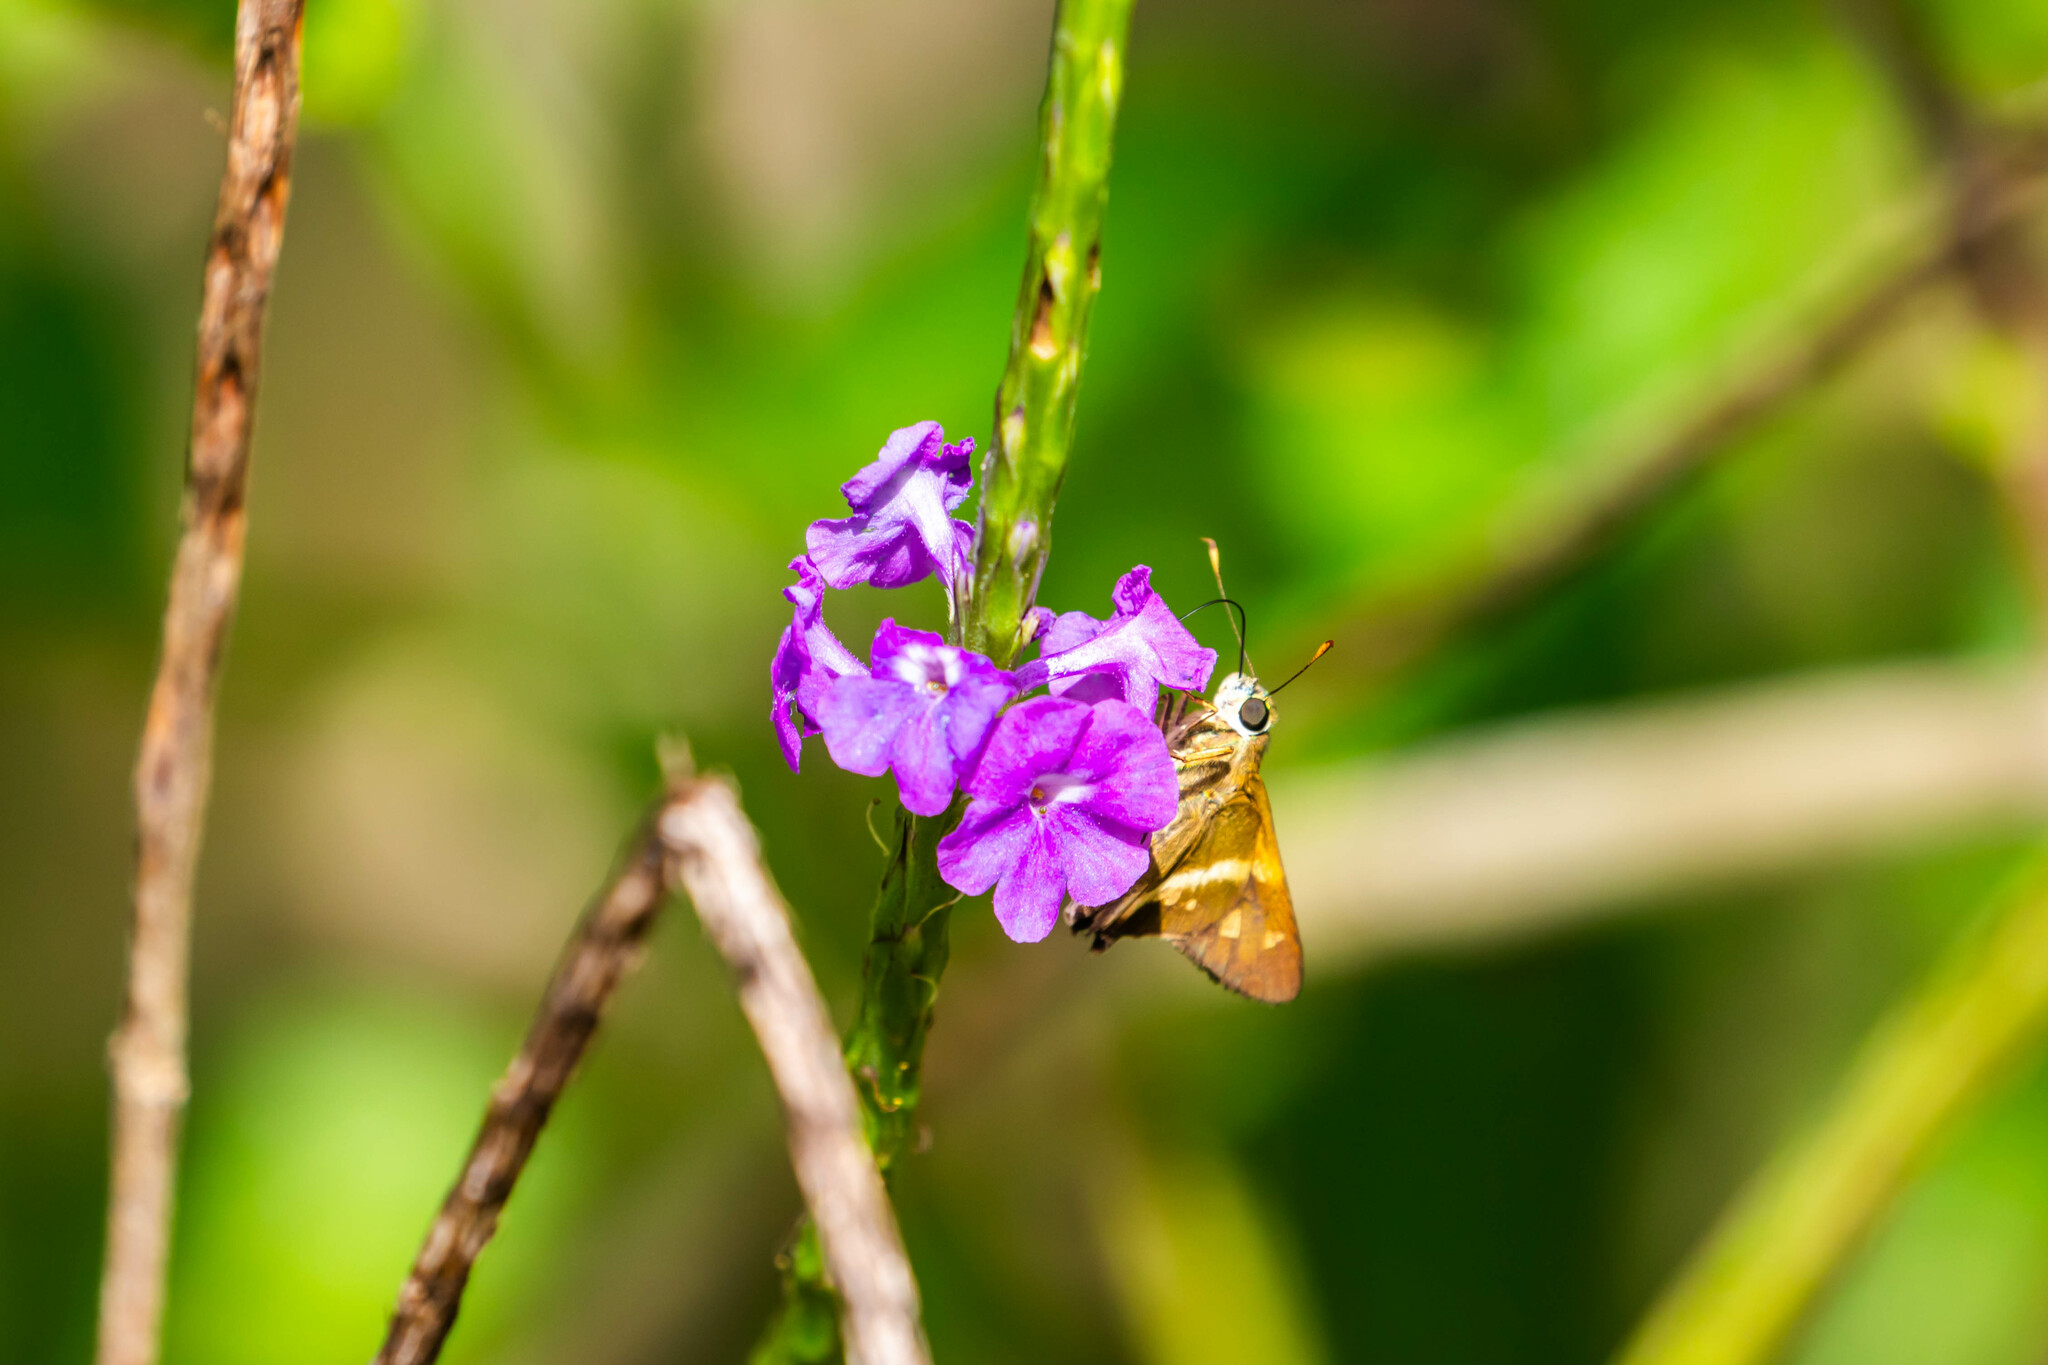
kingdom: Animalia
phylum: Arthropoda
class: Insecta
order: Lepidoptera
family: Hesperiidae
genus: Niconiades
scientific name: Niconiades nikko
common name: Nikko skipper
